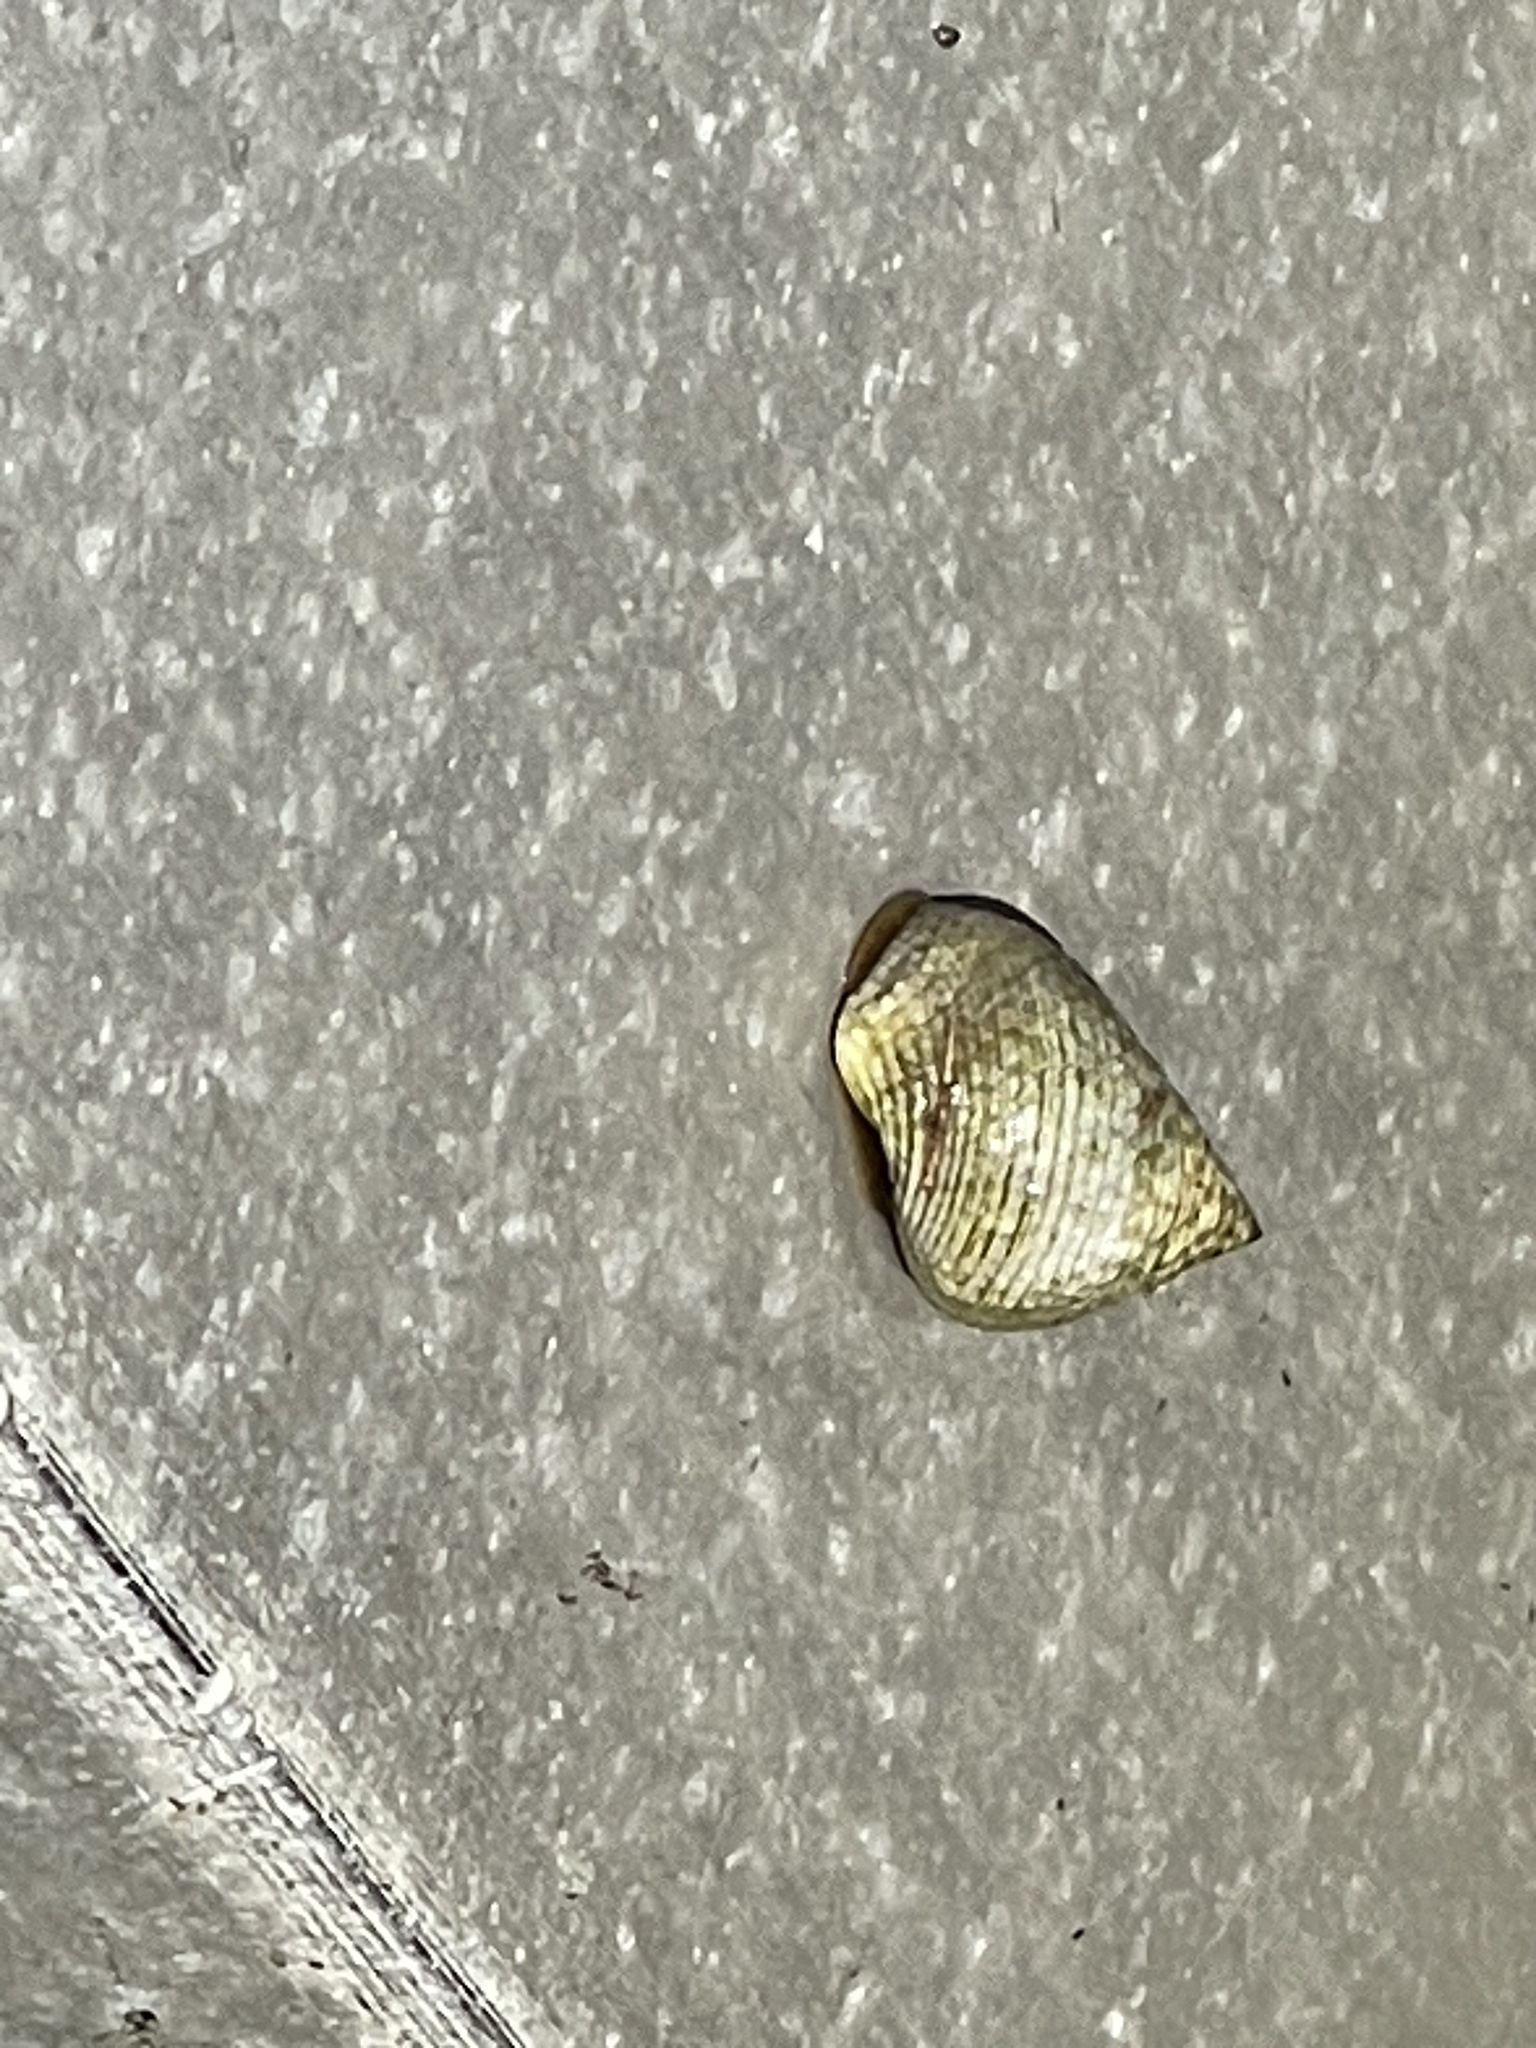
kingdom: Animalia
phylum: Mollusca
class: Gastropoda
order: Littorinimorpha
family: Littorinidae
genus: Littoraria
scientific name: Littoraria irrorata
